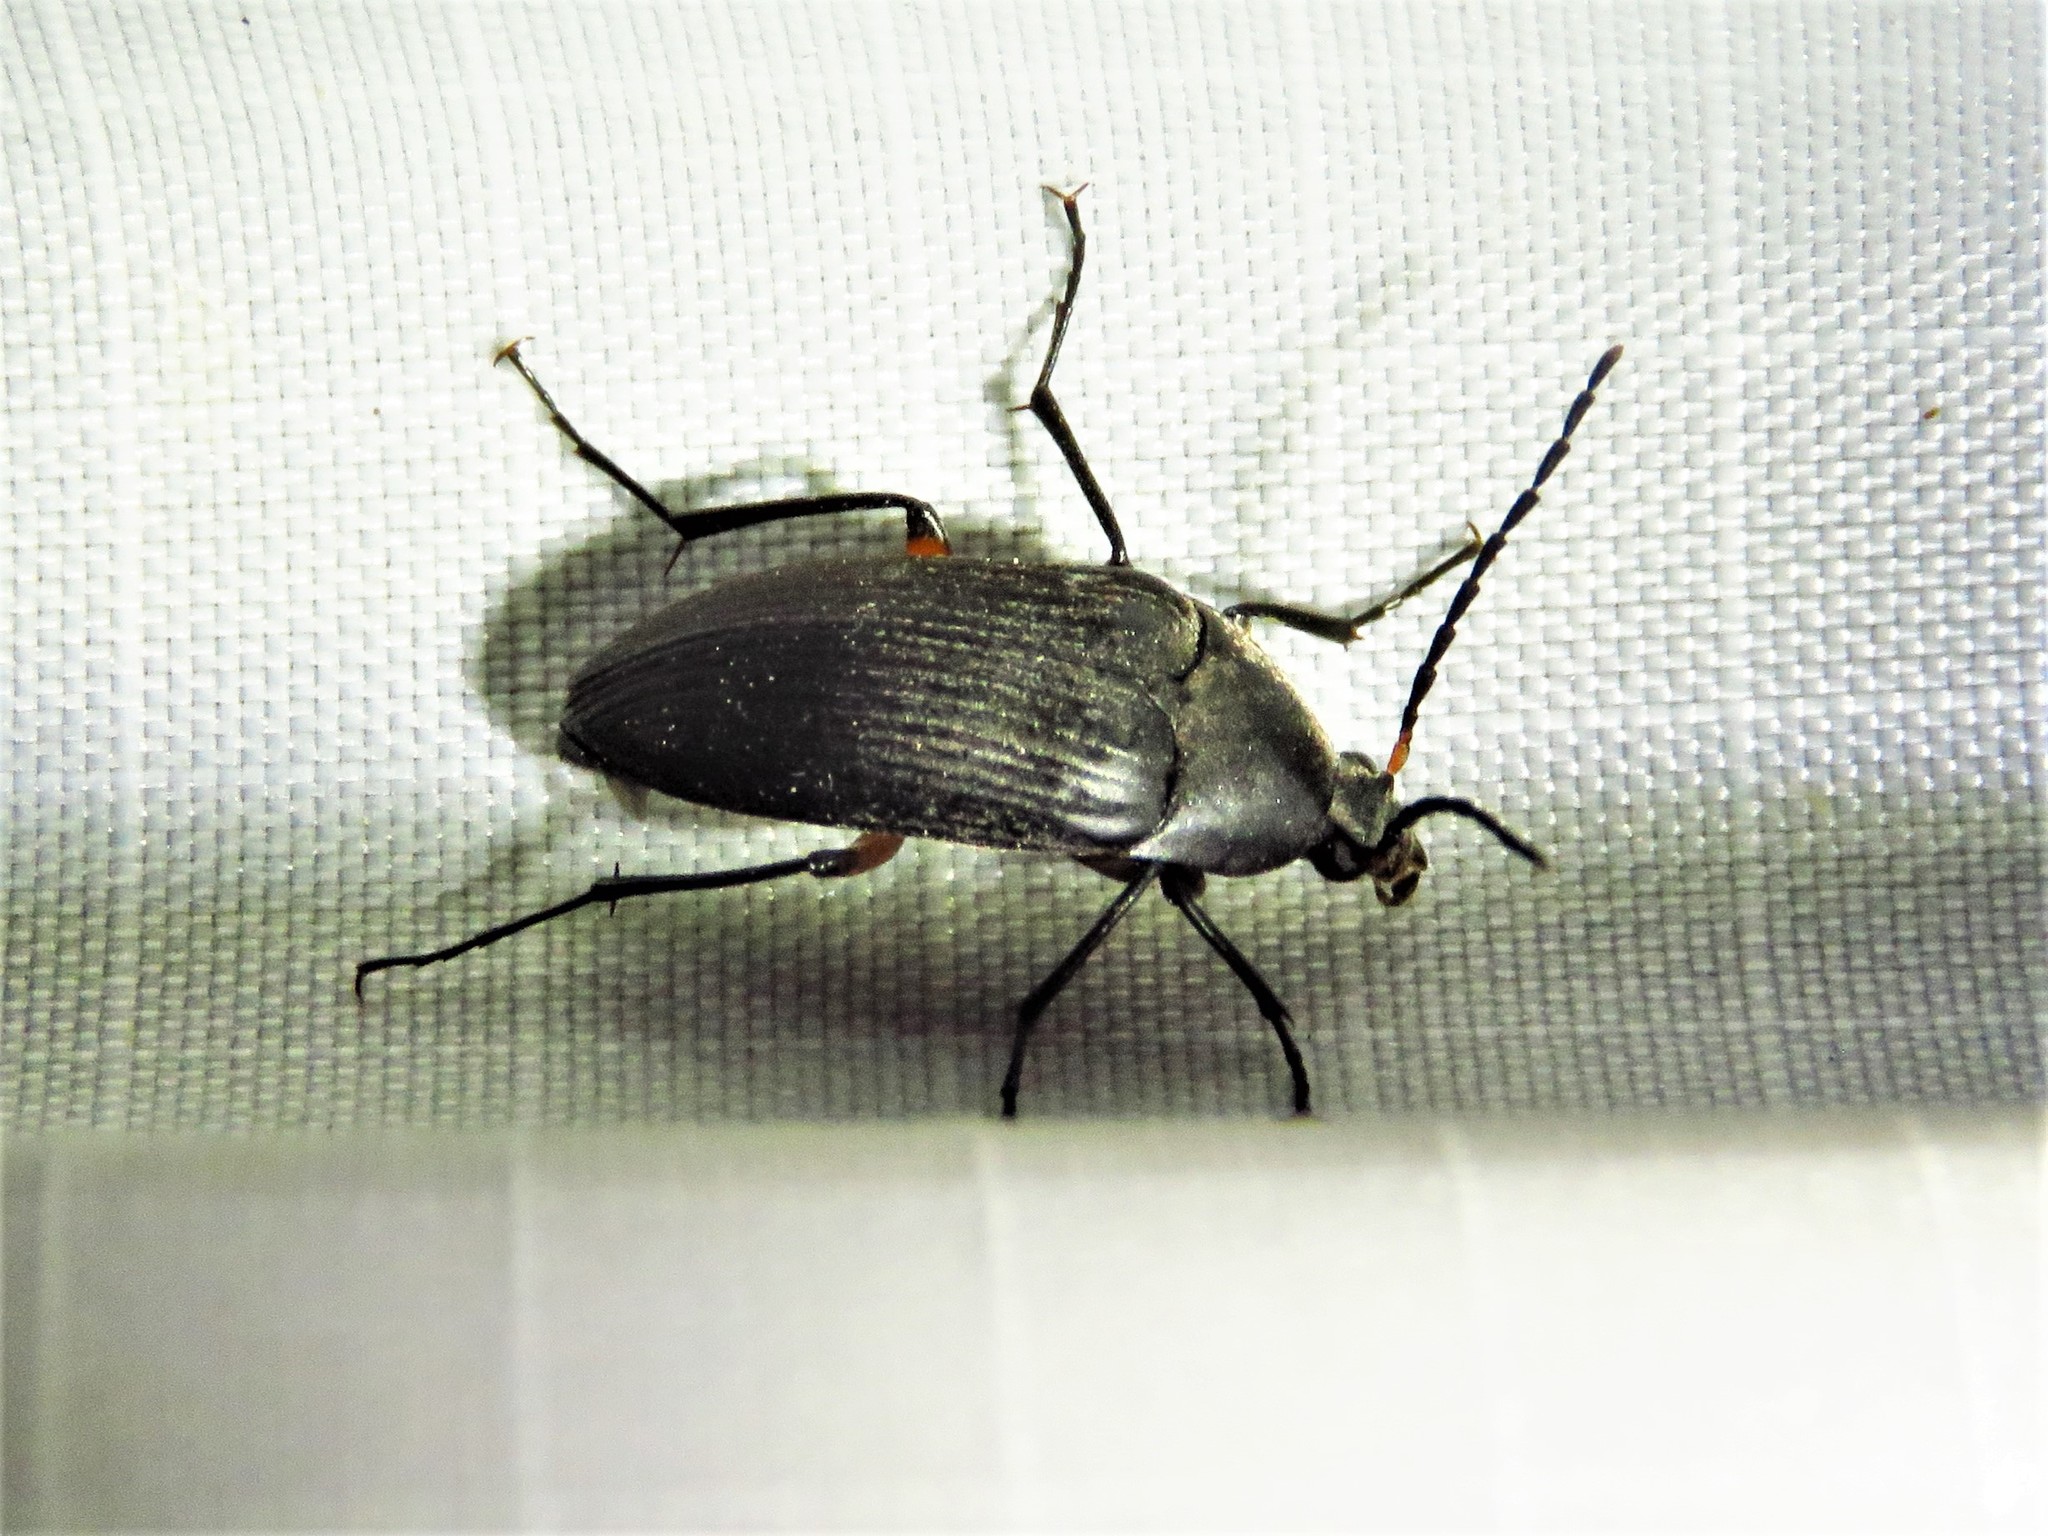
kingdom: Animalia
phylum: Arthropoda
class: Insecta
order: Coleoptera
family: Tenebrionidae
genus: Androchirus
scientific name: Androchirus femoralis
